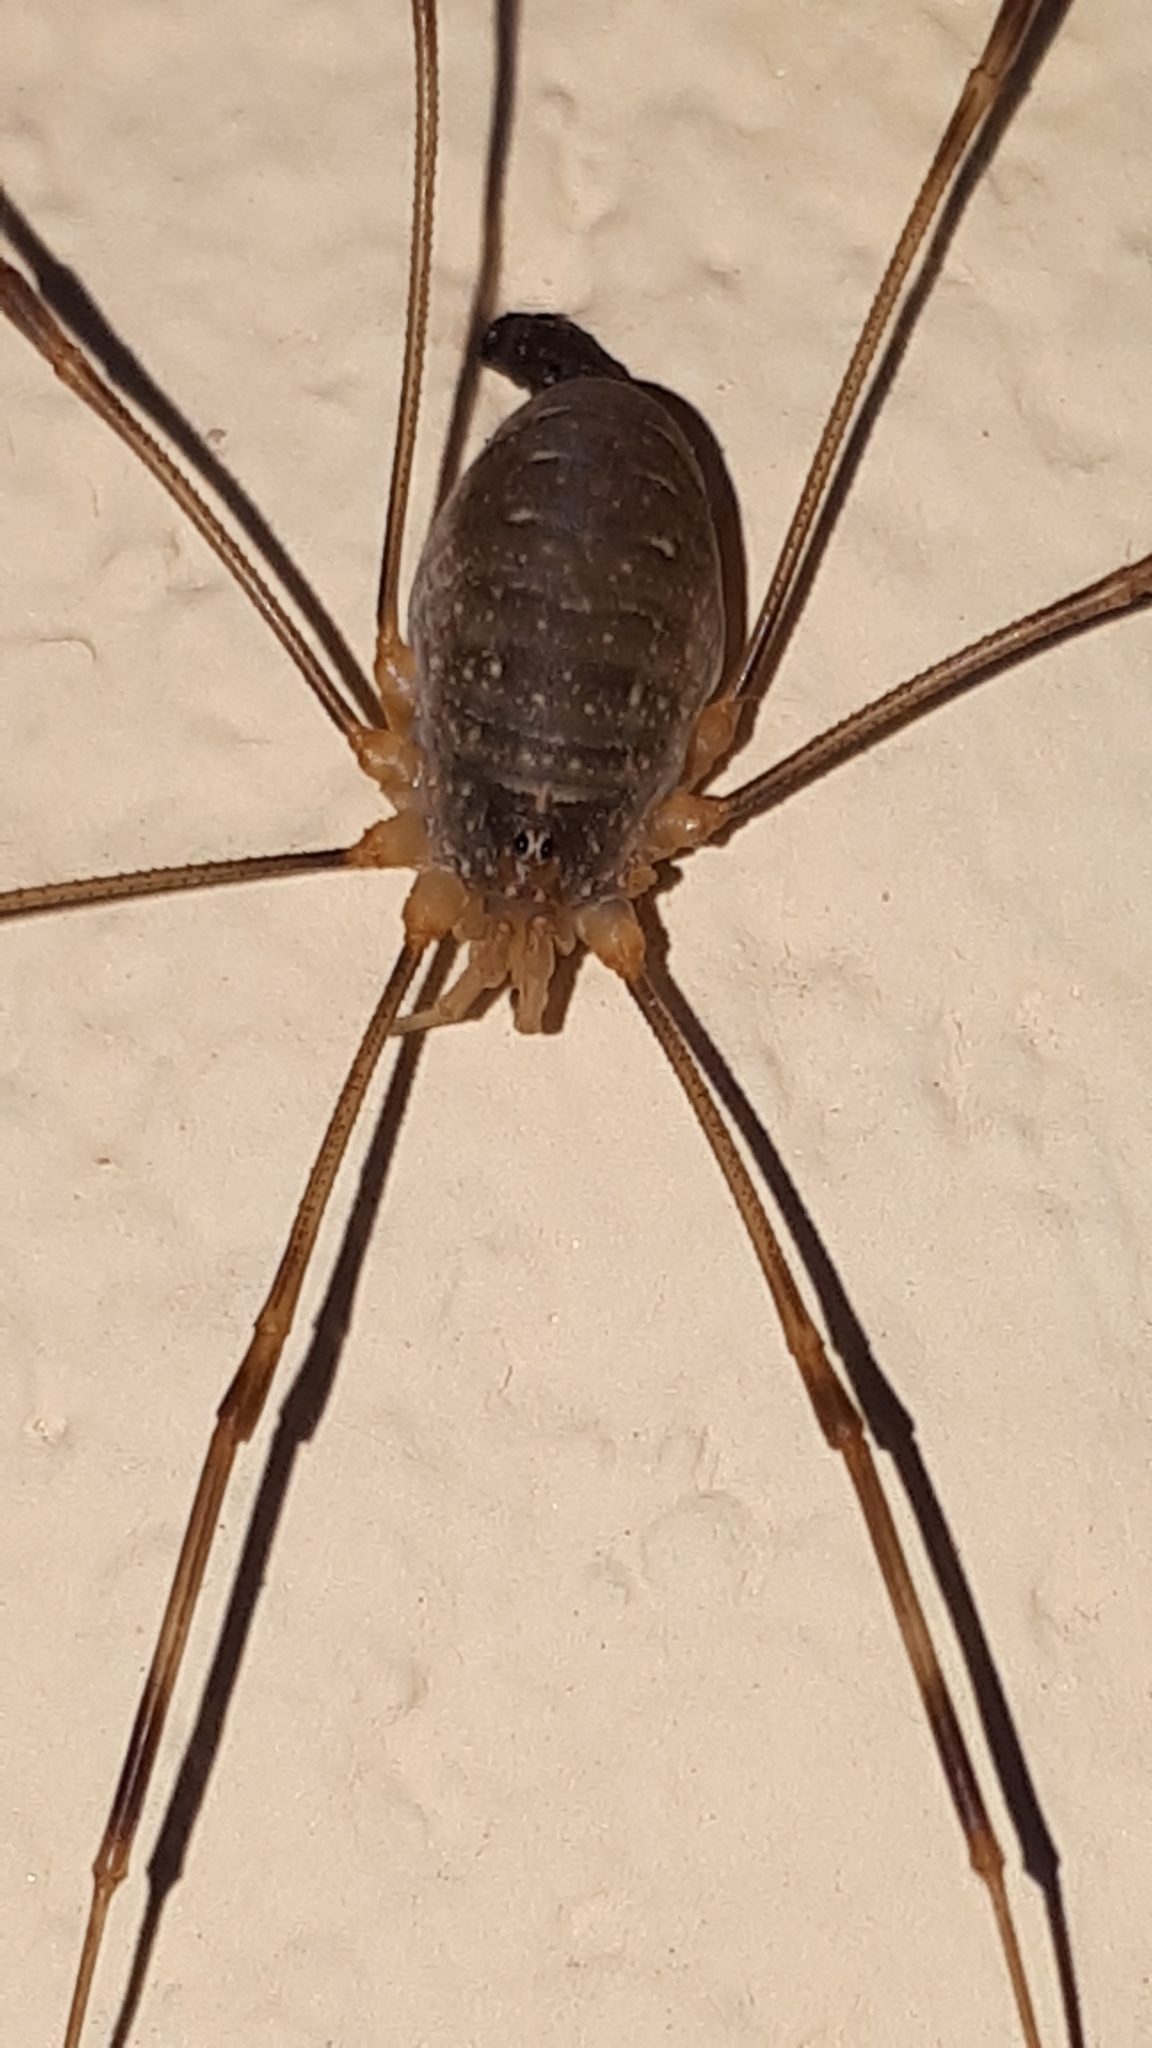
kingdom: Animalia
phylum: Arthropoda
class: Arachnida
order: Opiliones
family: Phalangiidae
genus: Opilio
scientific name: Opilio canestrinii
